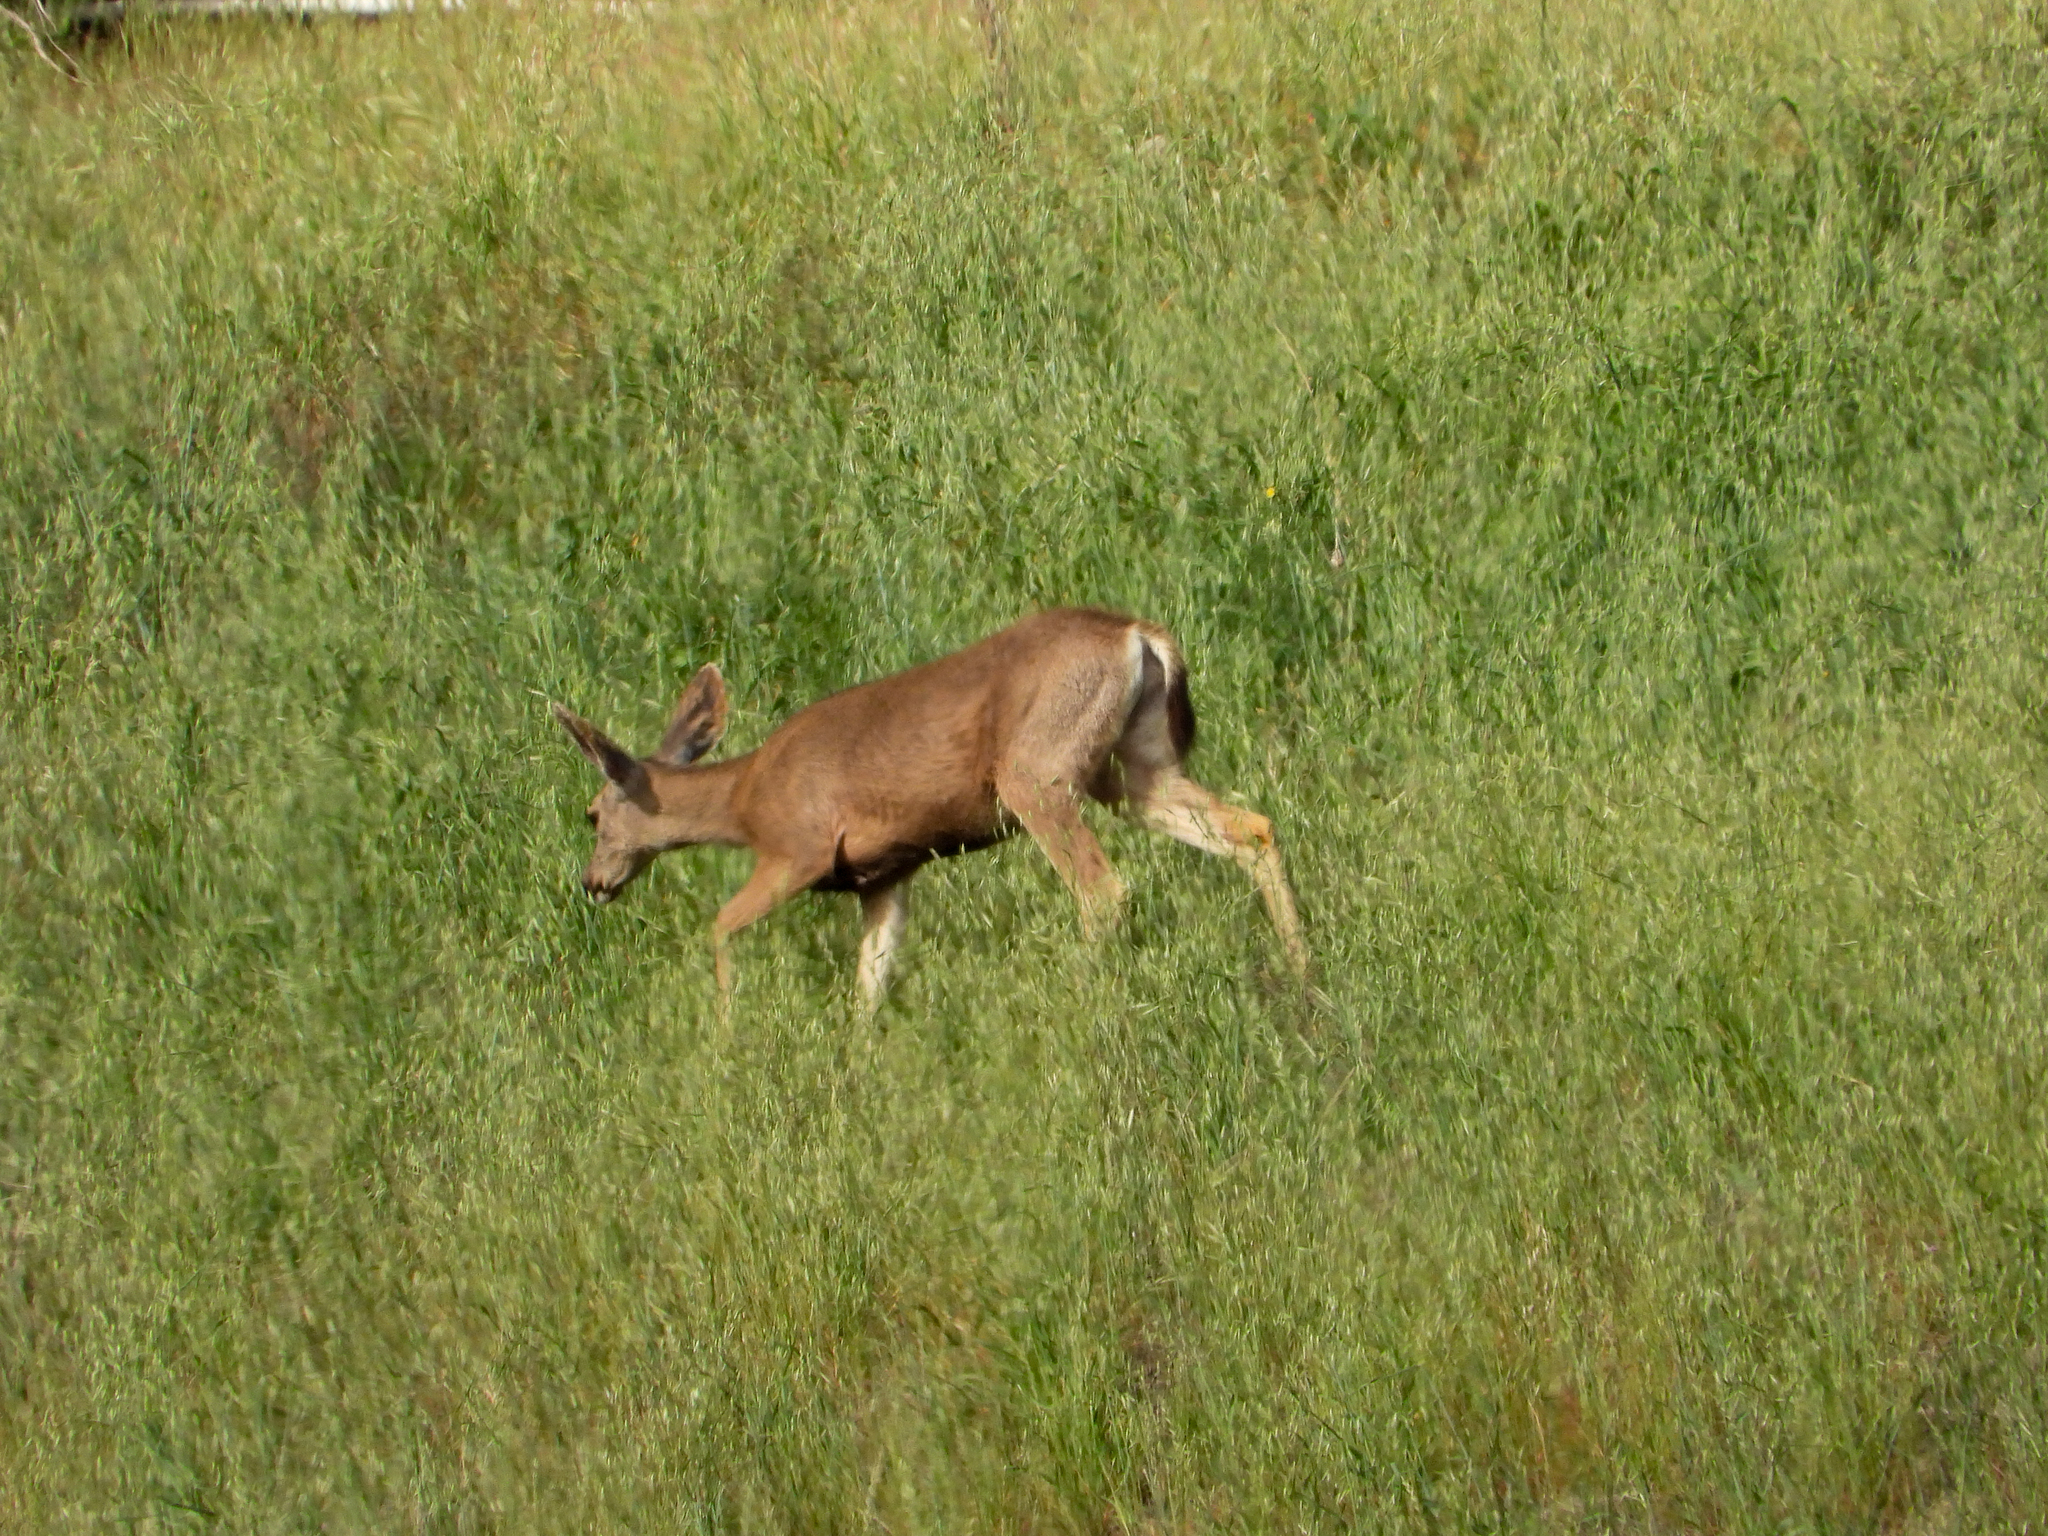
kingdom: Animalia
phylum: Chordata
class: Mammalia
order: Artiodactyla
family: Cervidae
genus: Odocoileus
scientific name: Odocoileus hemionus
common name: Mule deer
